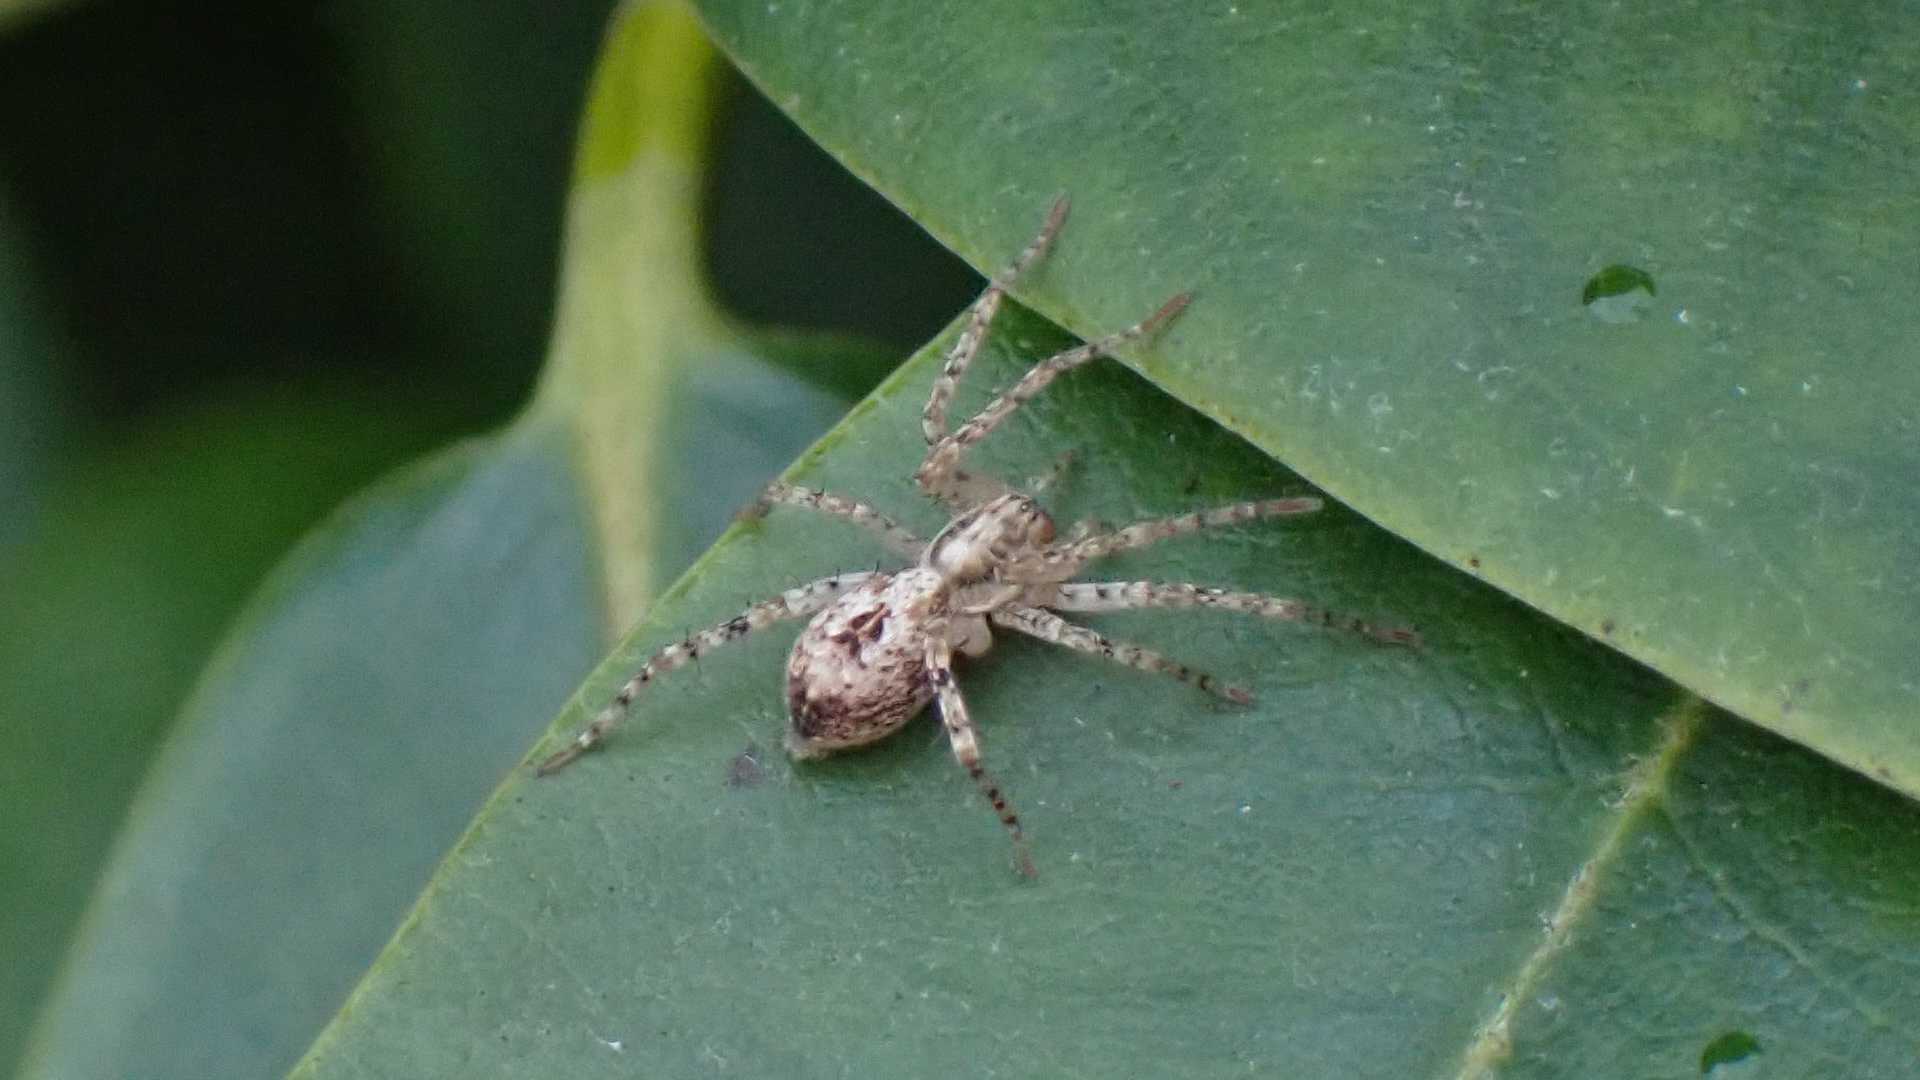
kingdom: Animalia
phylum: Arthropoda
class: Arachnida
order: Araneae
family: Anyphaenidae
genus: Anyphaena
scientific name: Anyphaena accentuata
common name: Buzzing spider
